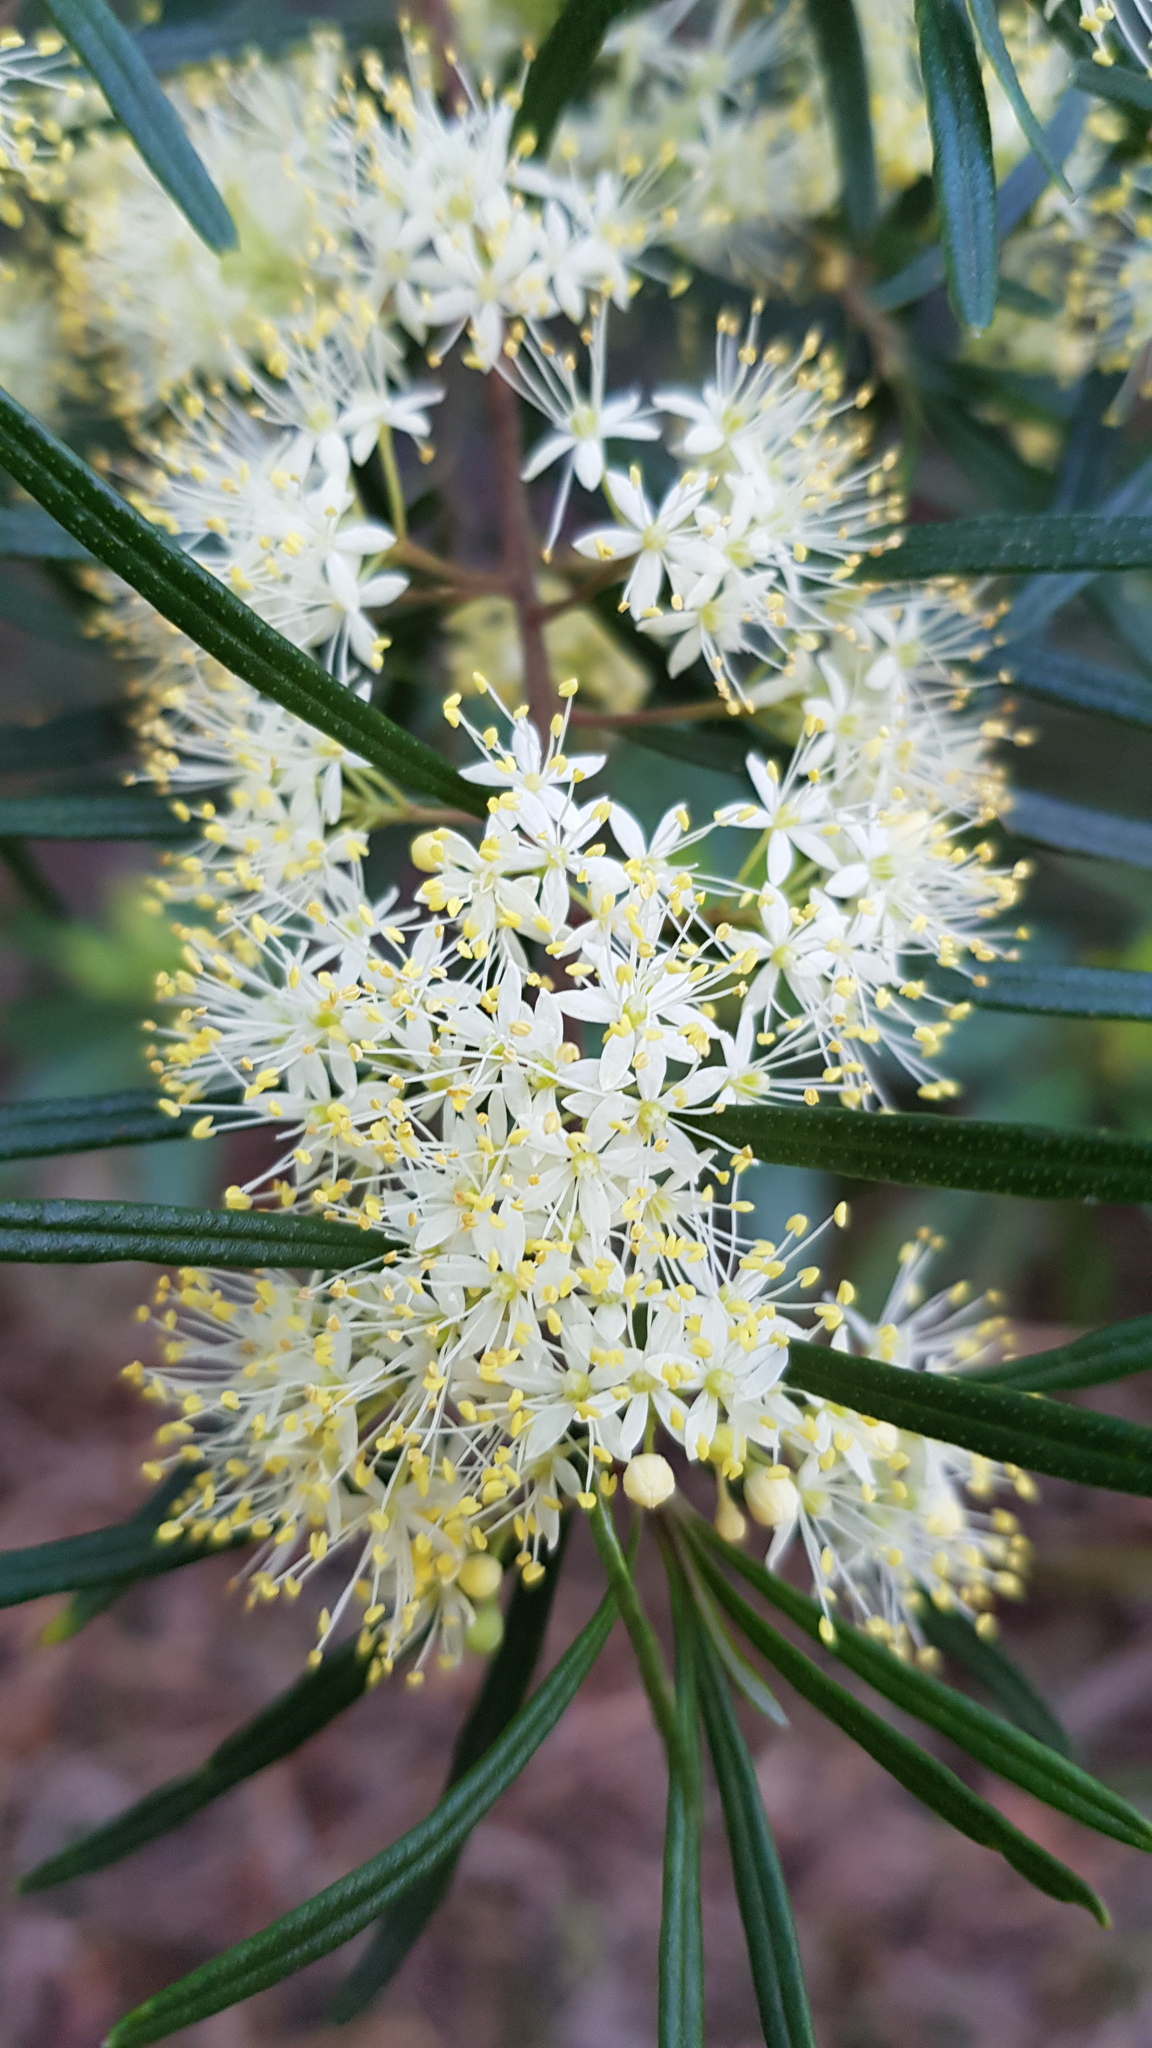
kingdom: Plantae
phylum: Tracheophyta
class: Magnoliopsida
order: Sapindales
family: Rutaceae
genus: Leionema
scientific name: Leionema dentatum
